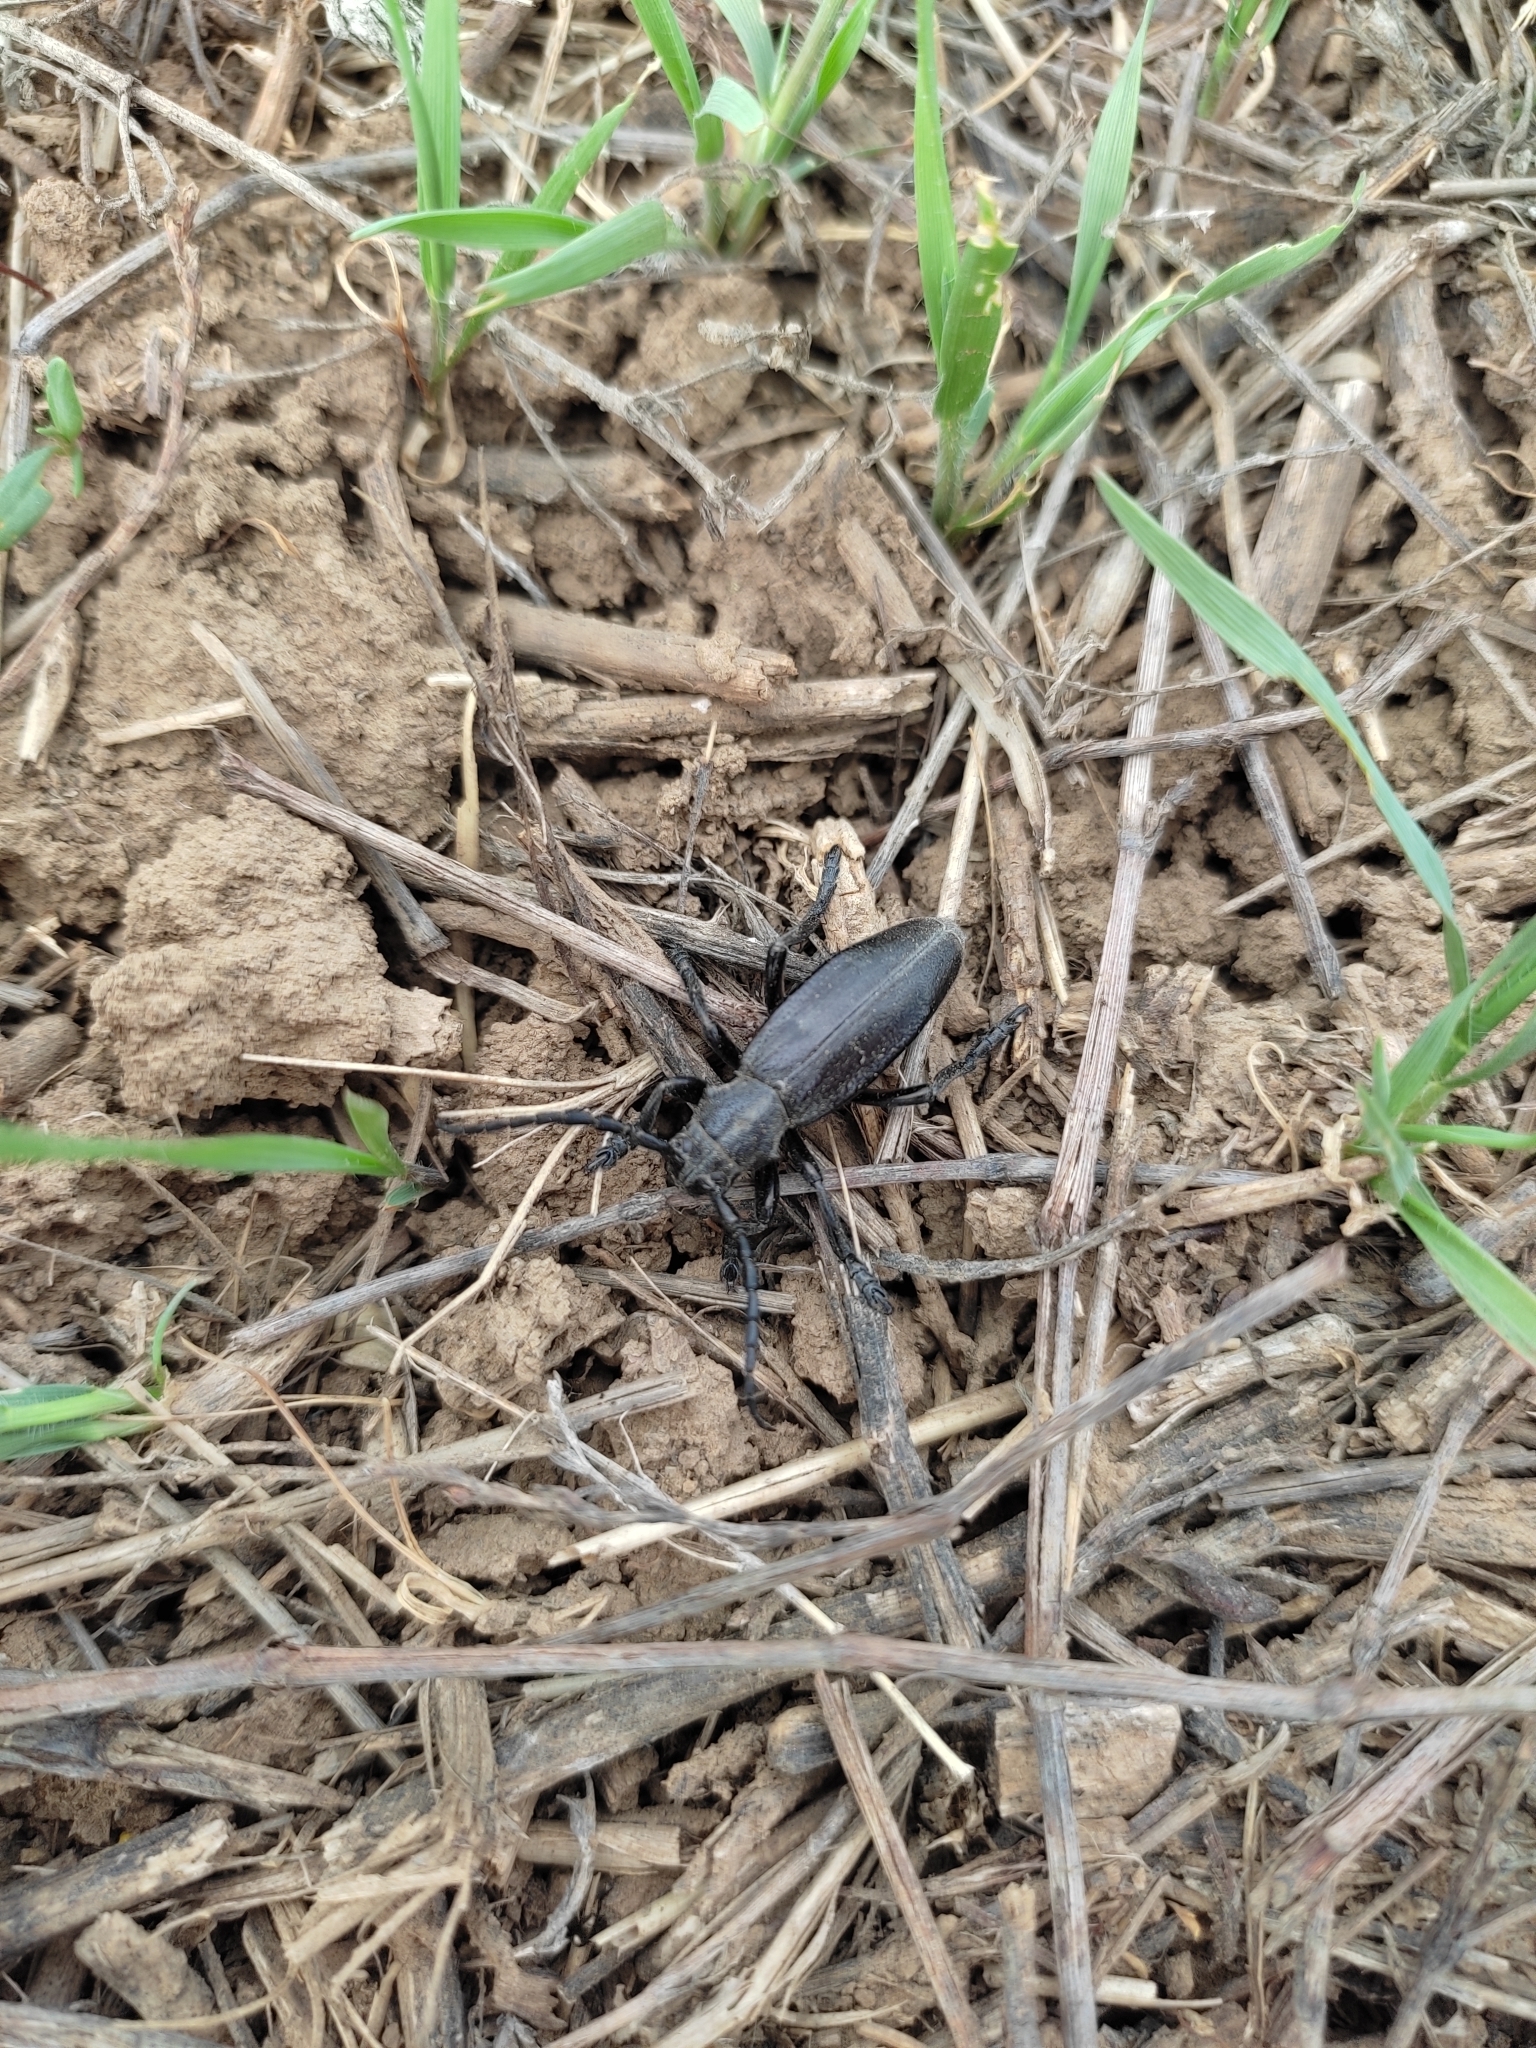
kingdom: Animalia
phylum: Arthropoda
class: Insecta
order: Coleoptera
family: Cerambycidae
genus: Dorcadion
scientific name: Dorcadion carinatum
